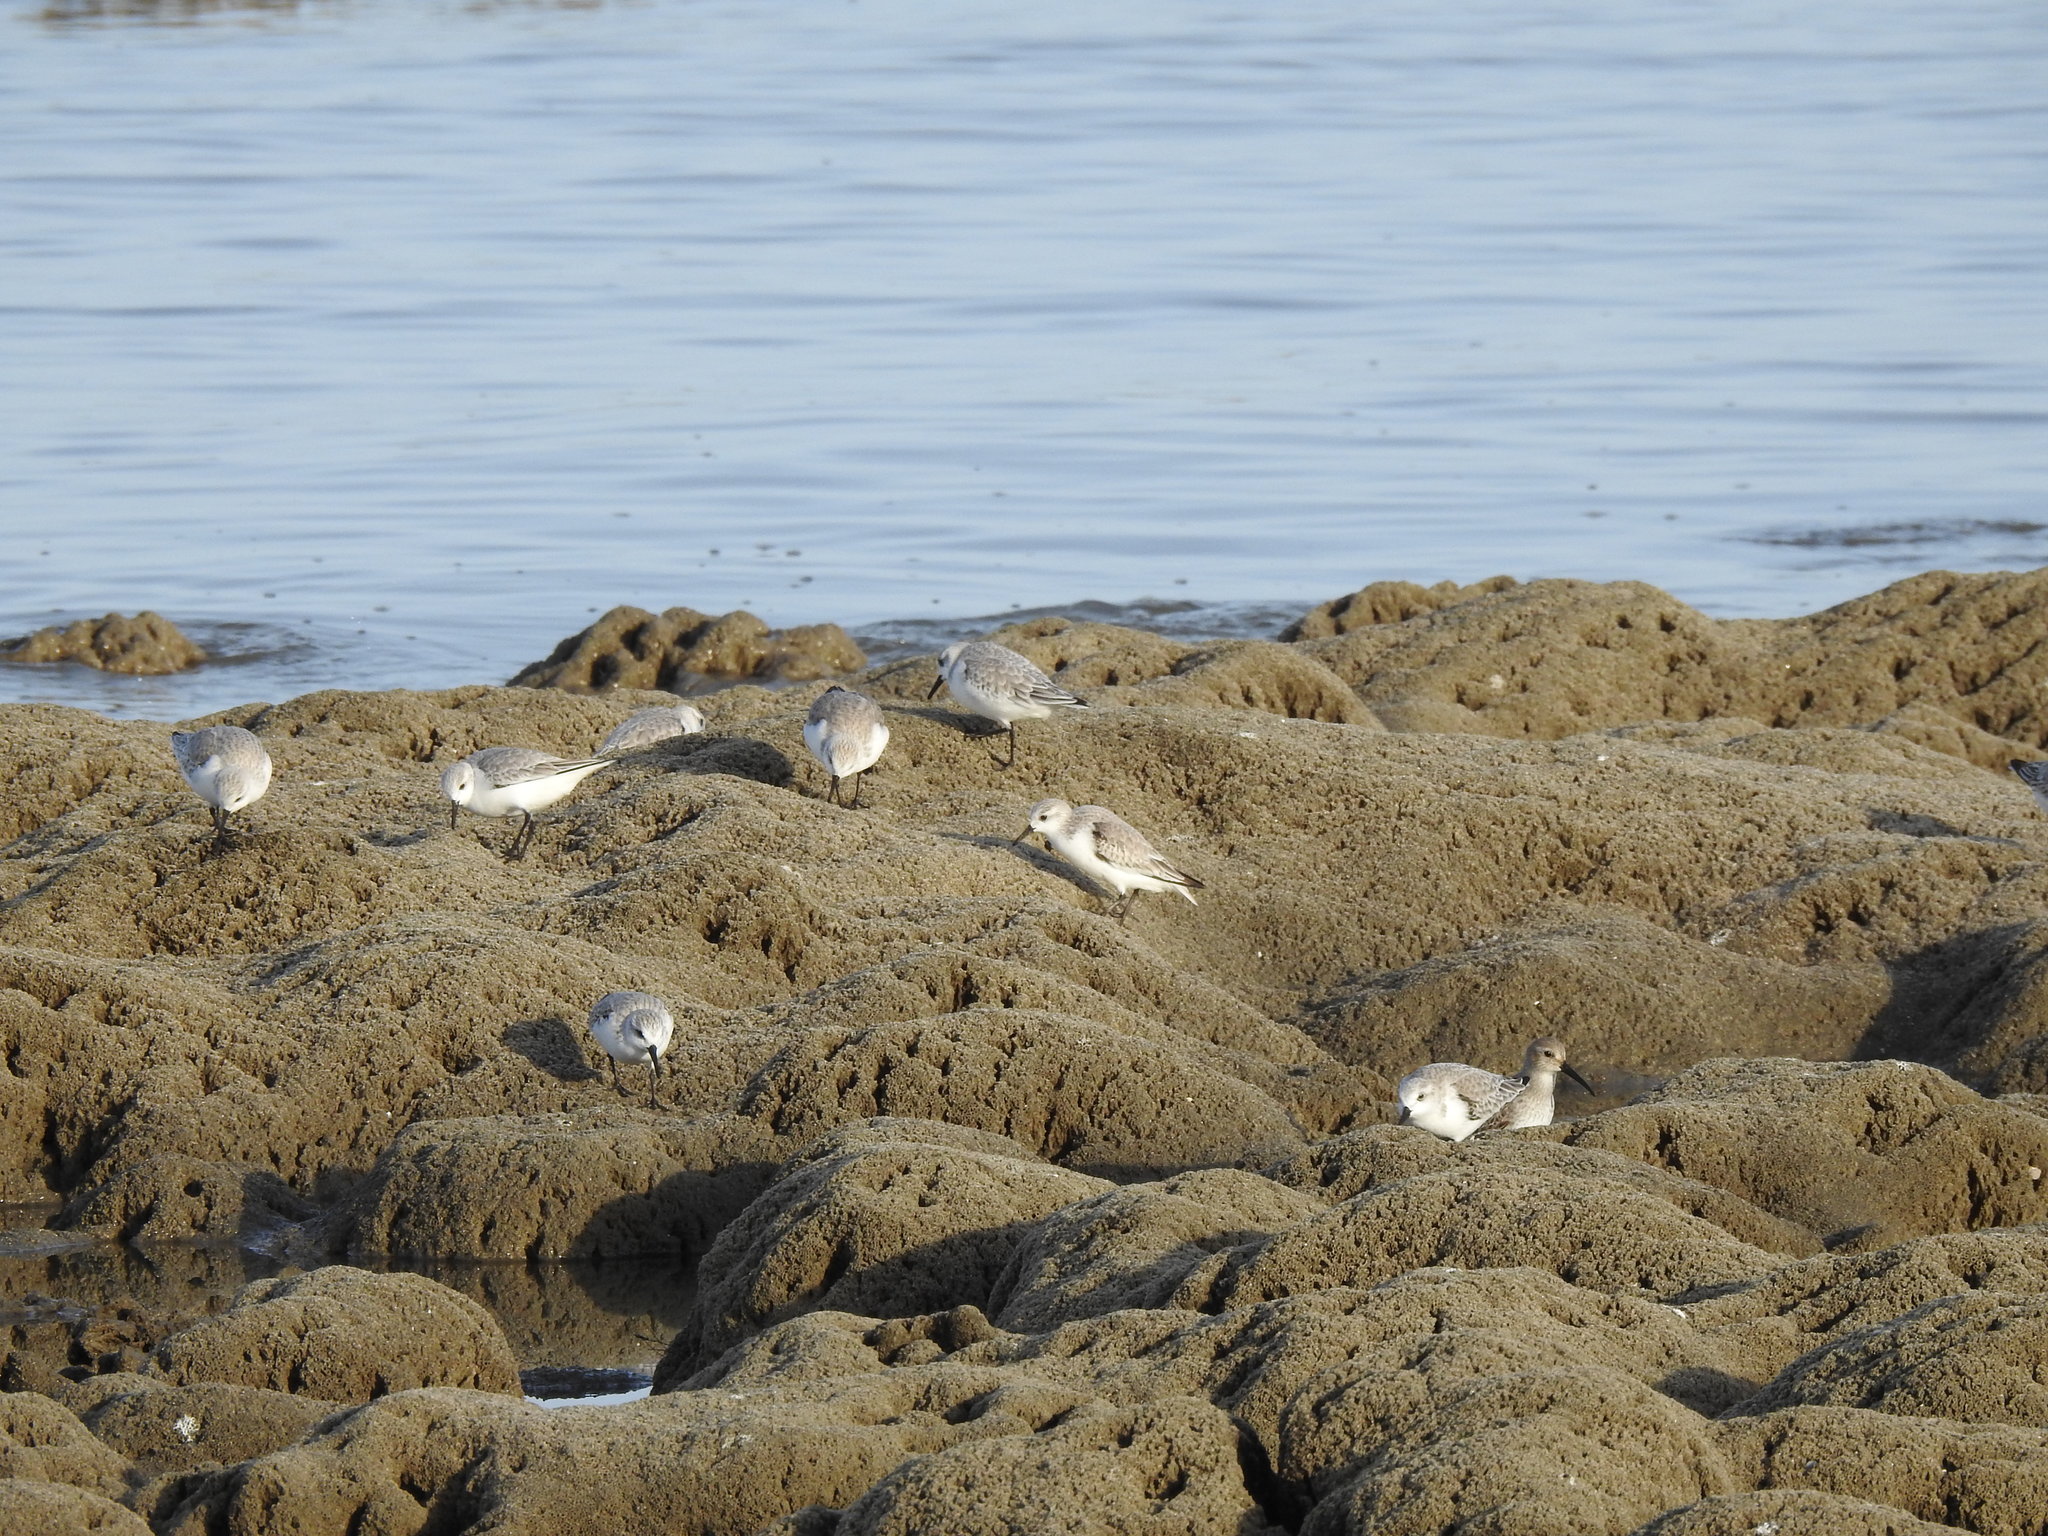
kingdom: Animalia
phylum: Chordata
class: Aves
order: Charadriiformes
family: Scolopacidae
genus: Calidris
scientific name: Calidris alba
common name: Sanderling
